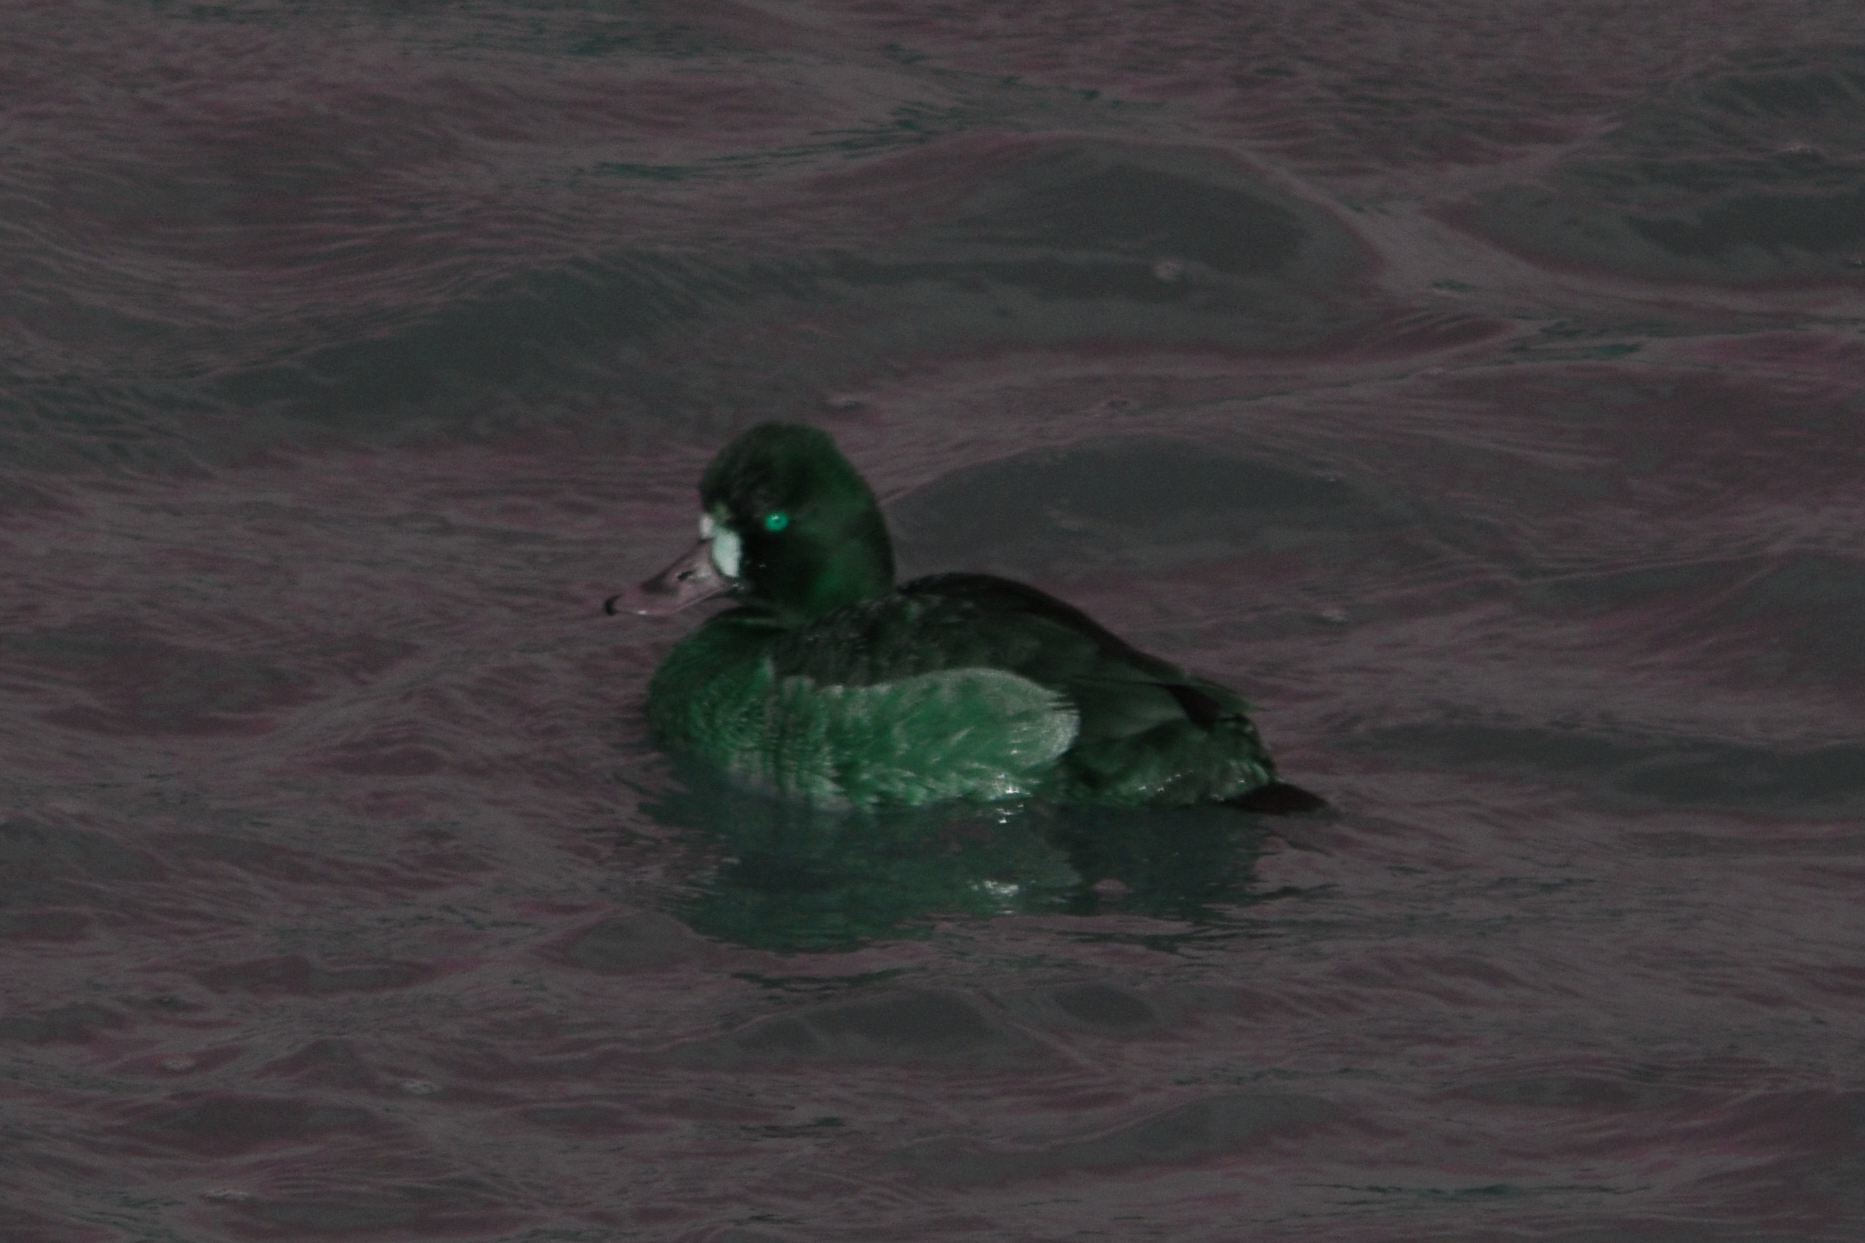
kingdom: Animalia
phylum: Chordata
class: Aves
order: Anseriformes
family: Anatidae
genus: Aythya
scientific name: Aythya affinis
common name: Lesser scaup
